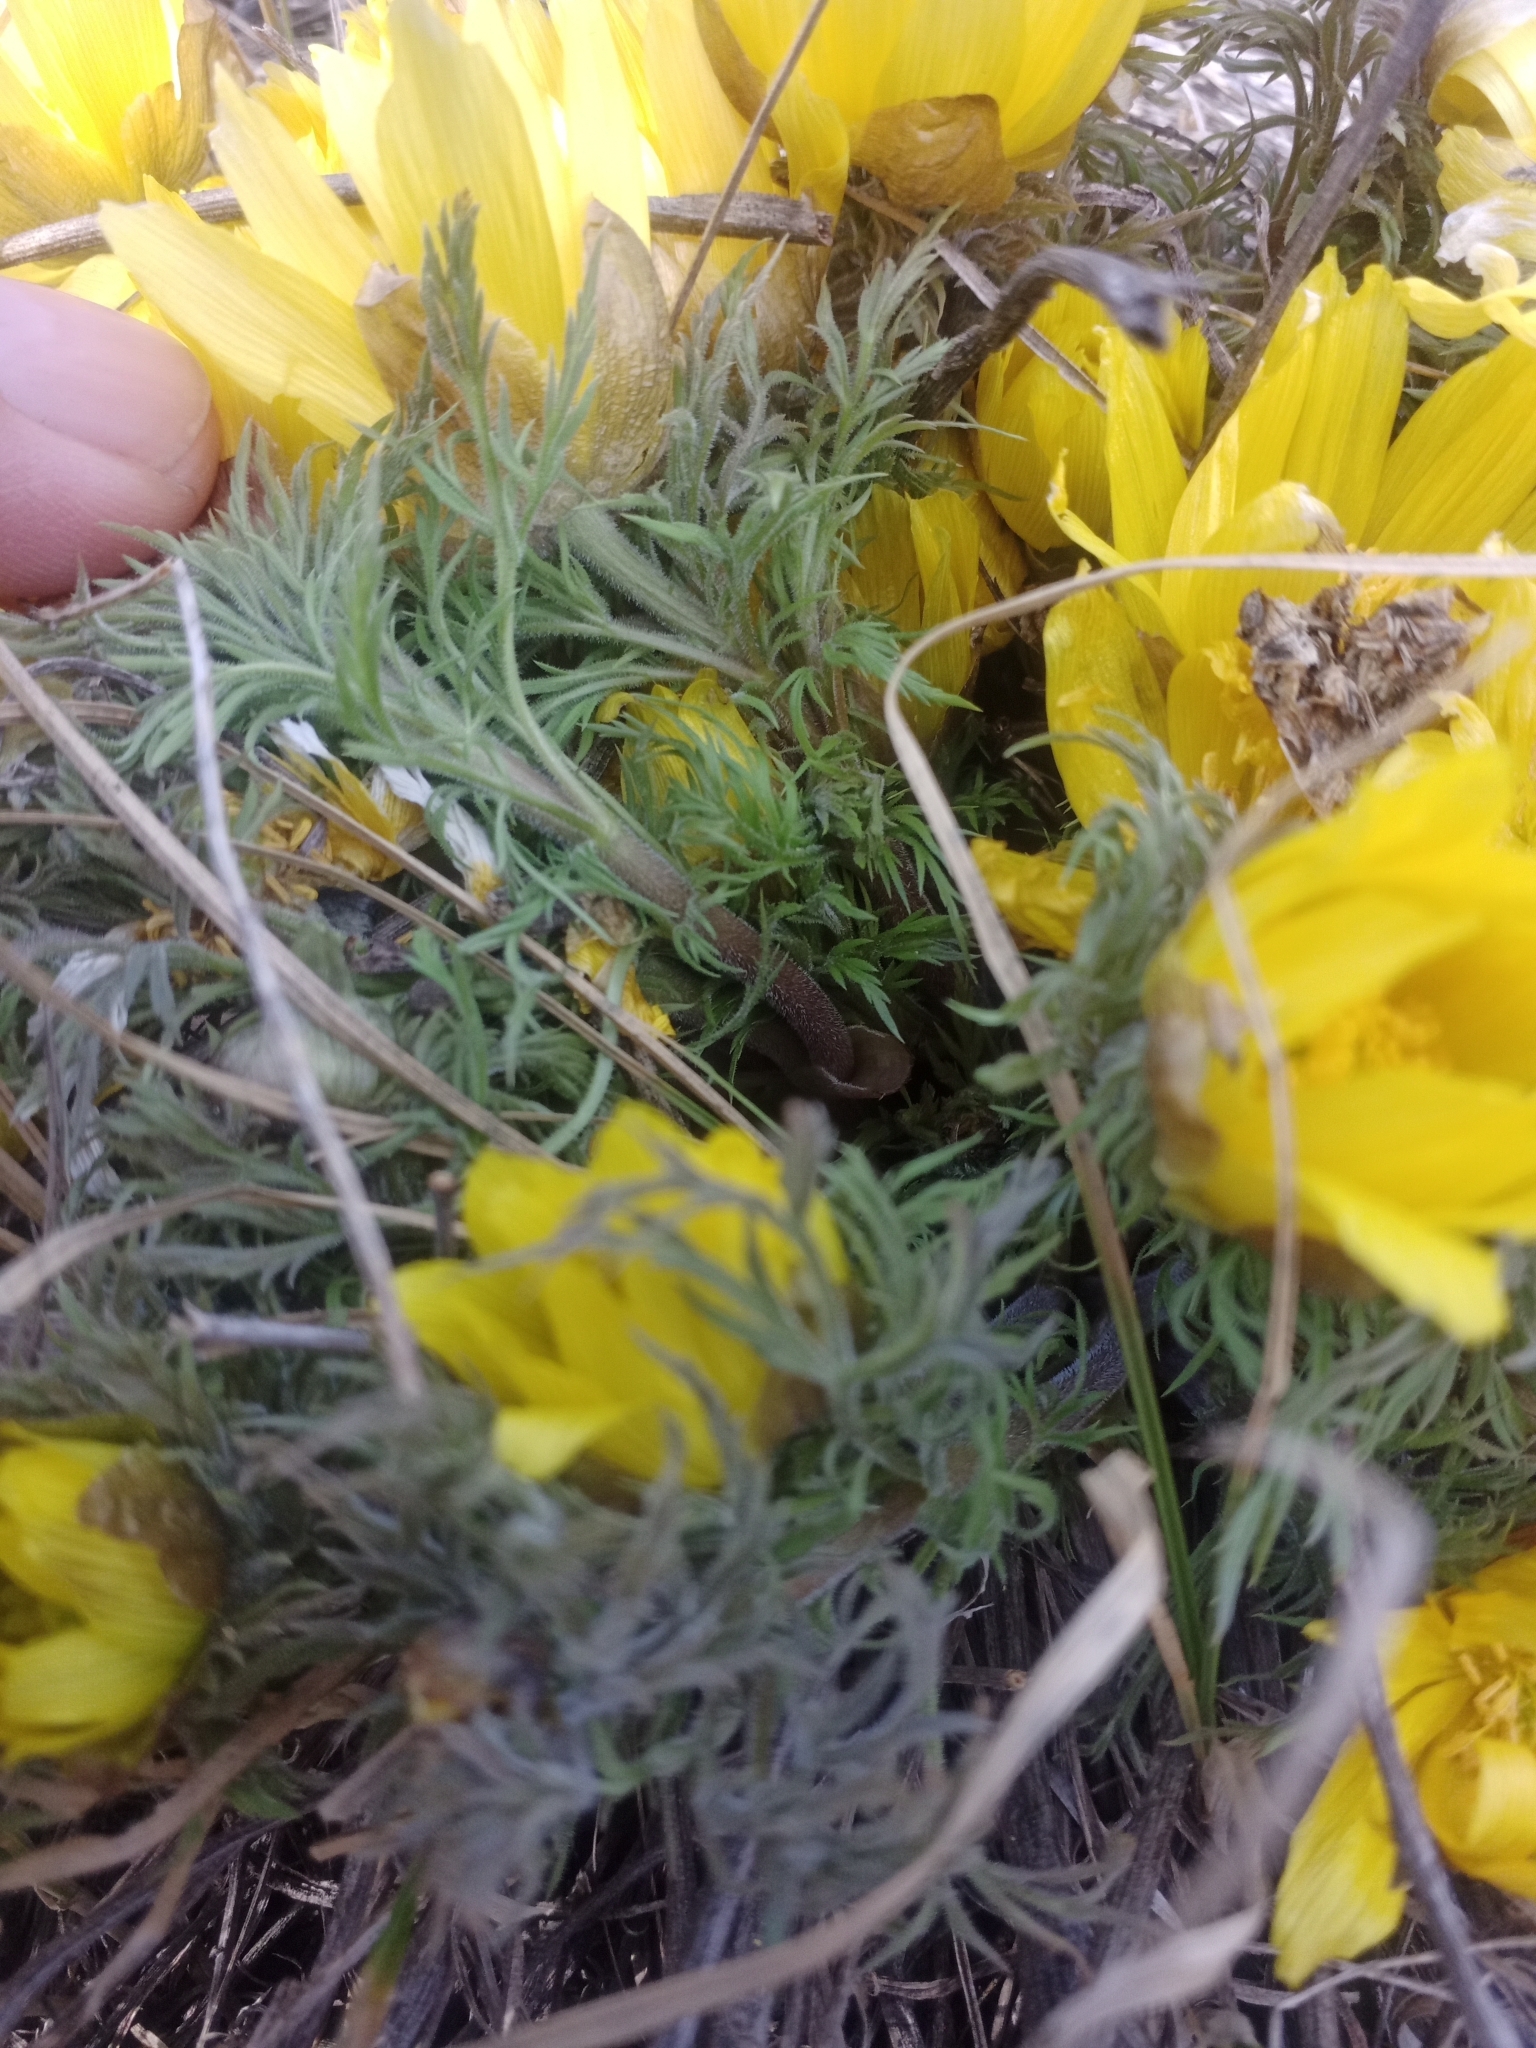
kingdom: Plantae
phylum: Tracheophyta
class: Magnoliopsida
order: Ranunculales
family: Ranunculaceae
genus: Adonis
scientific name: Adonis villosa
